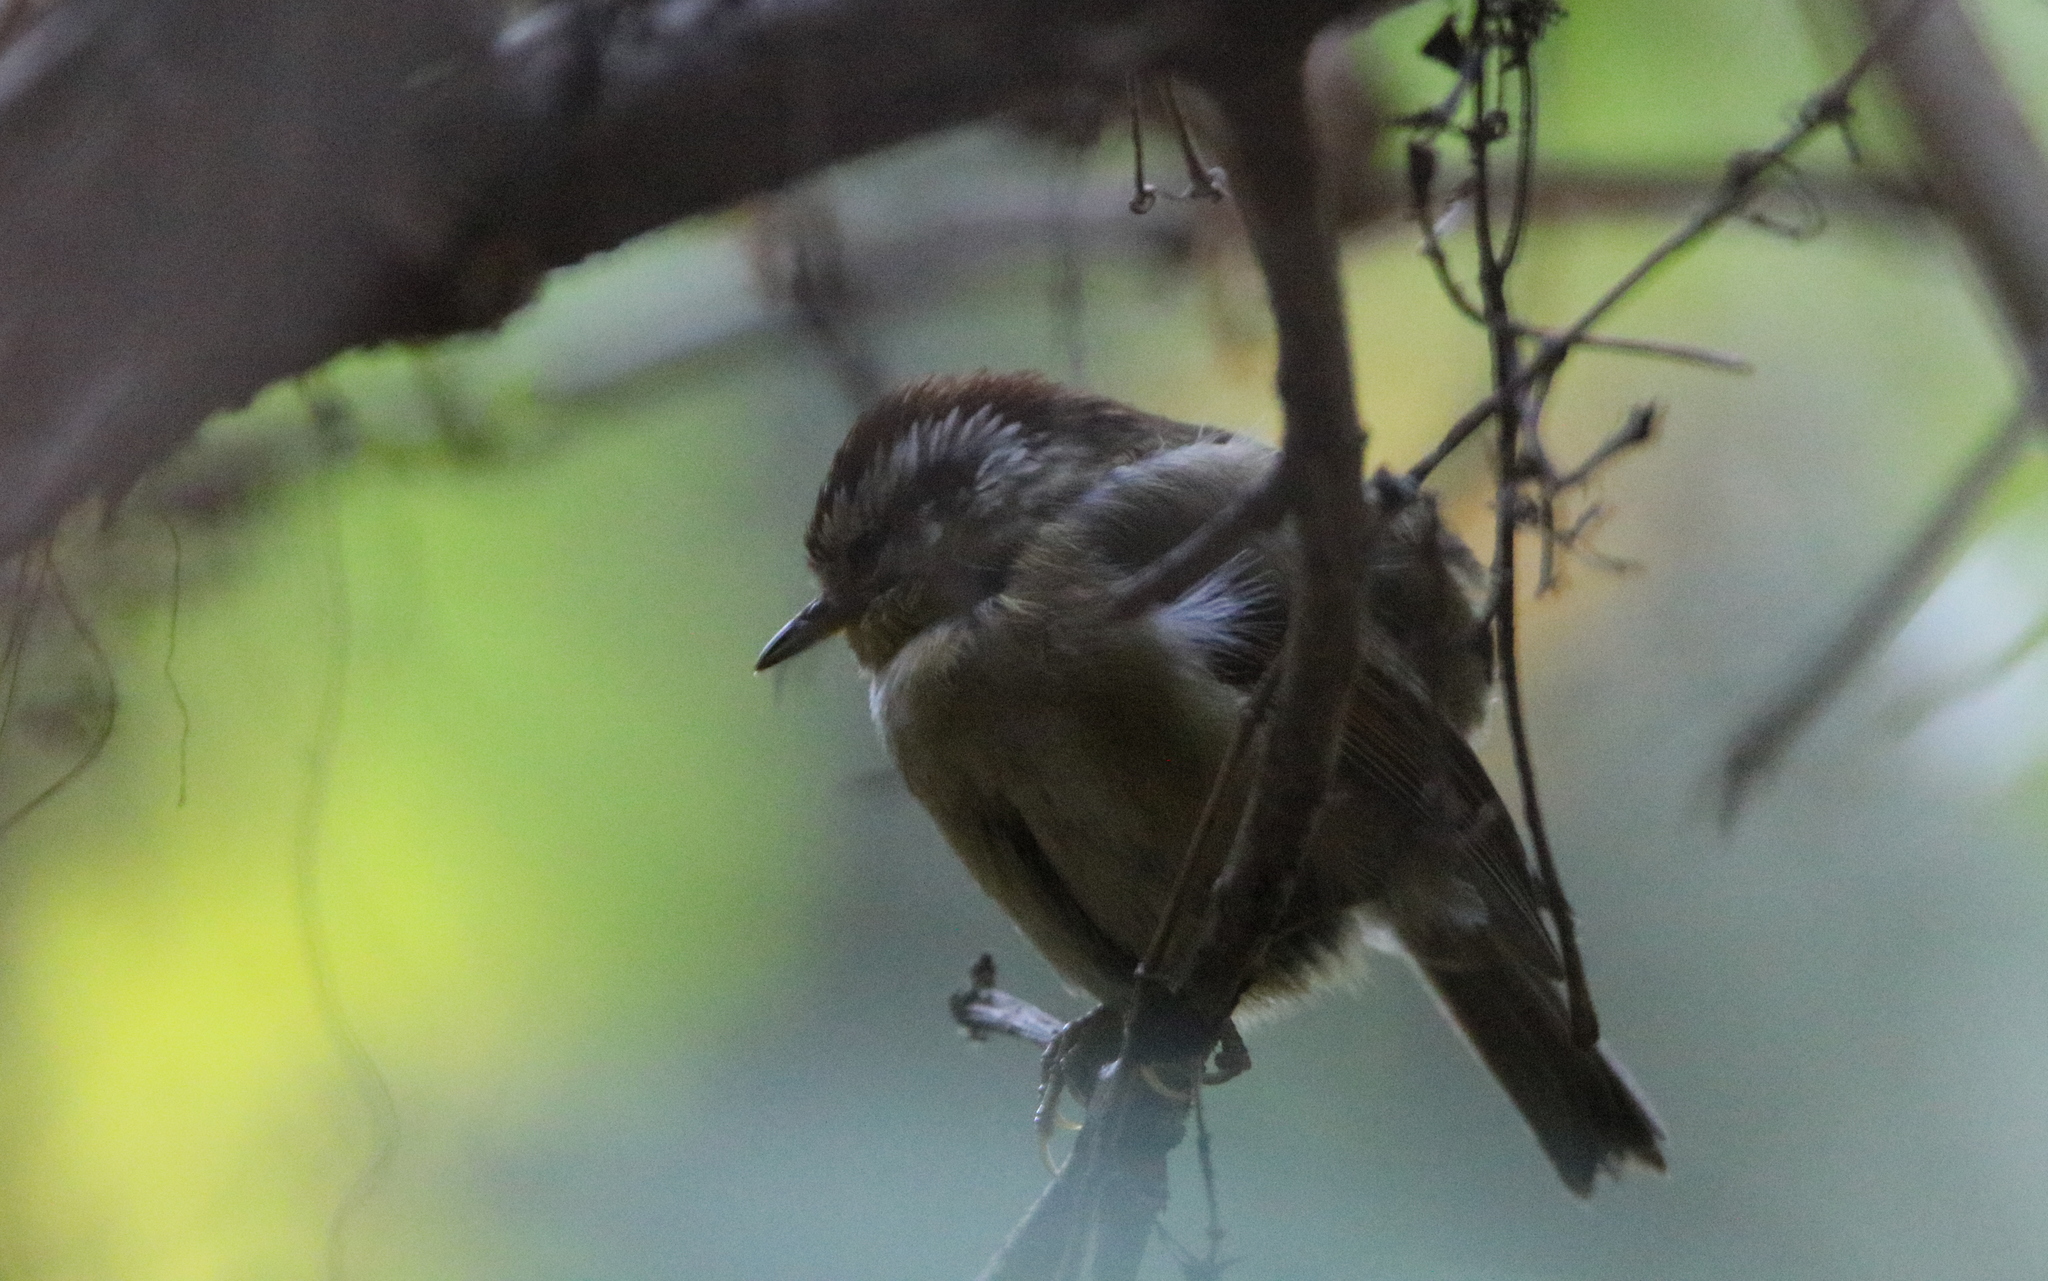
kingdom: Animalia
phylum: Chordata
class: Aves
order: Passeriformes
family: Pellorneidae
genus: Alcippe
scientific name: Alcippe castaneceps
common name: Rufous-winged fulvetta
